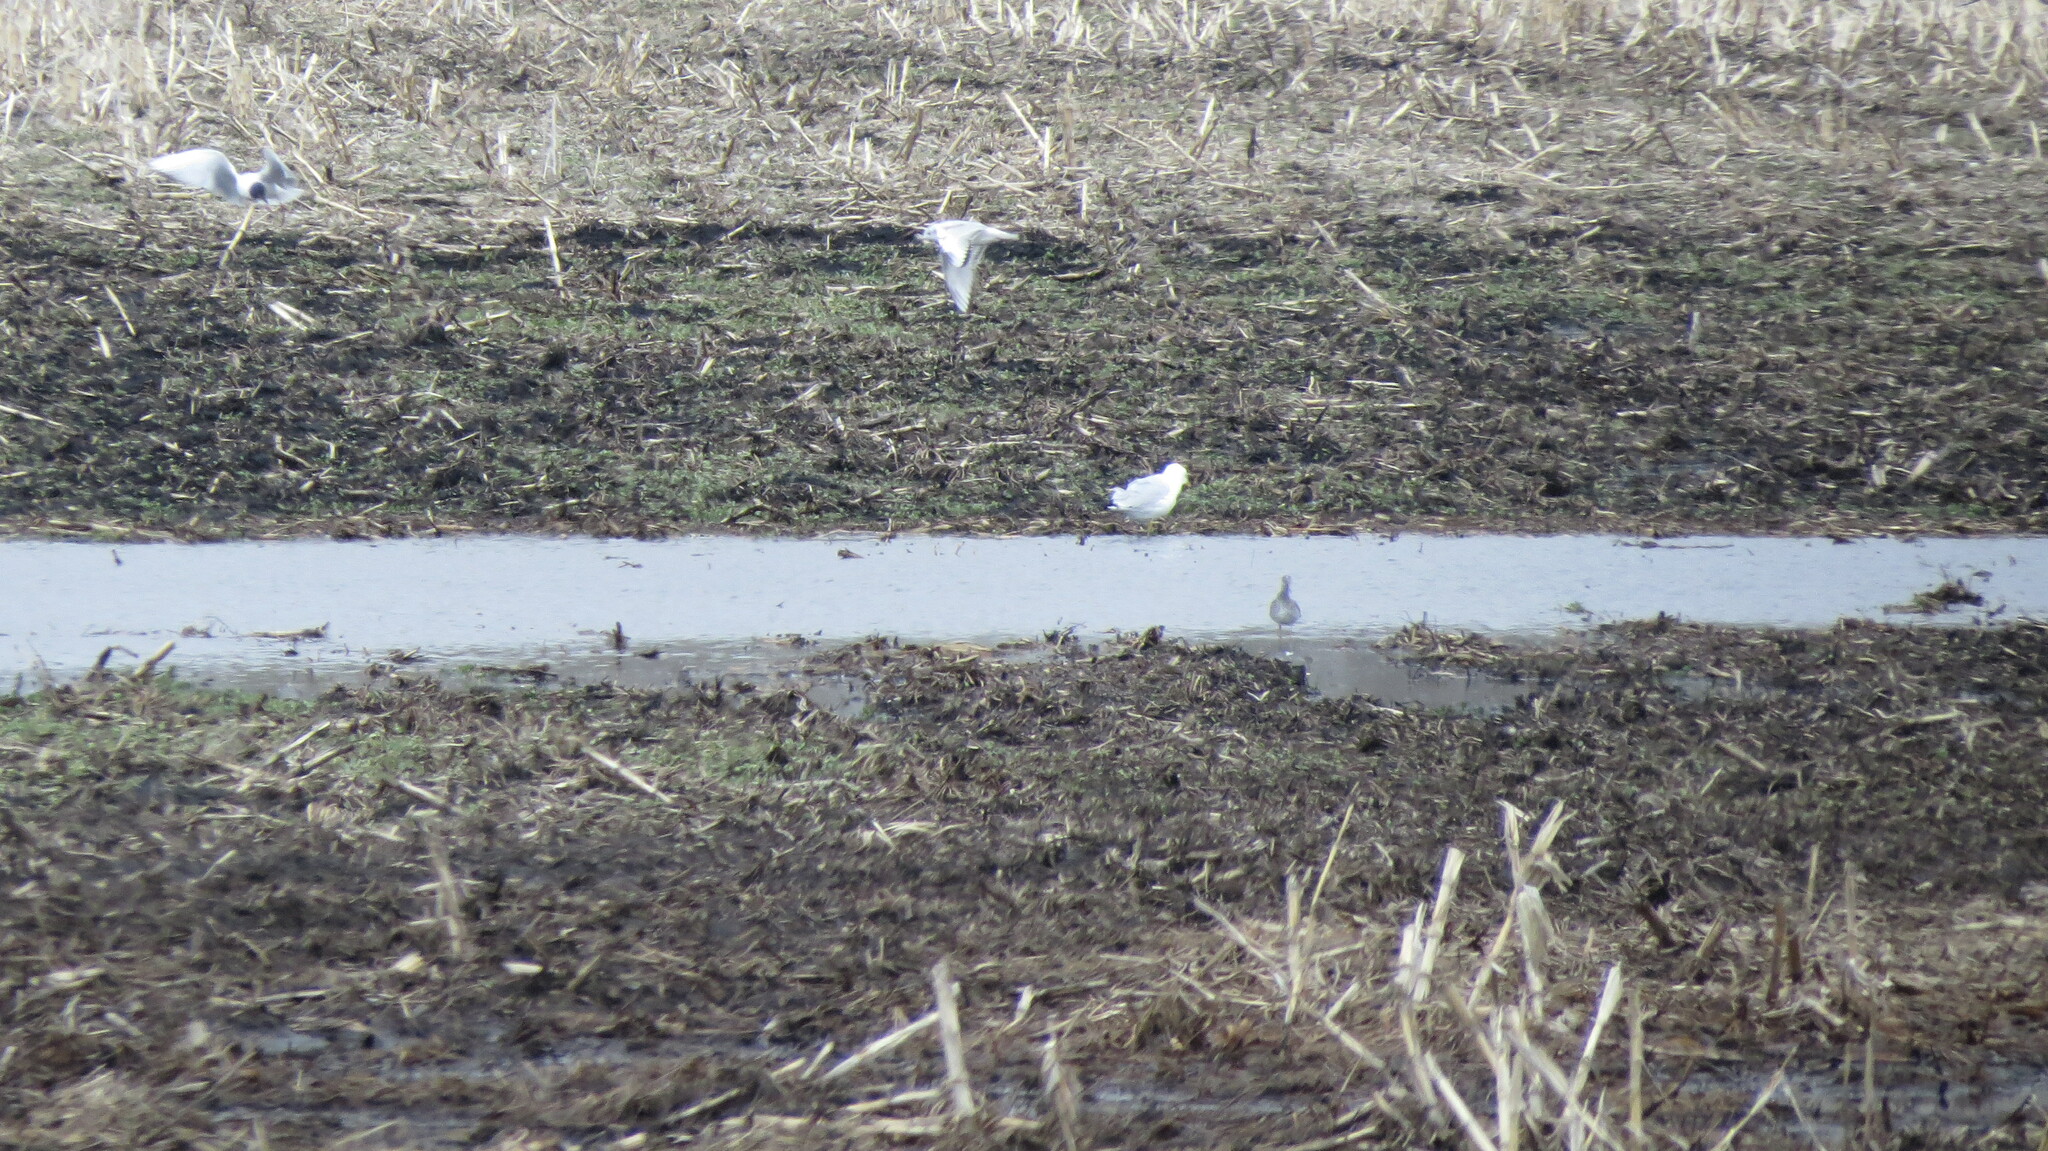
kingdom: Animalia
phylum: Chordata
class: Aves
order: Charadriiformes
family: Laridae
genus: Larus
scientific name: Larus delawarensis
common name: Ring-billed gull
